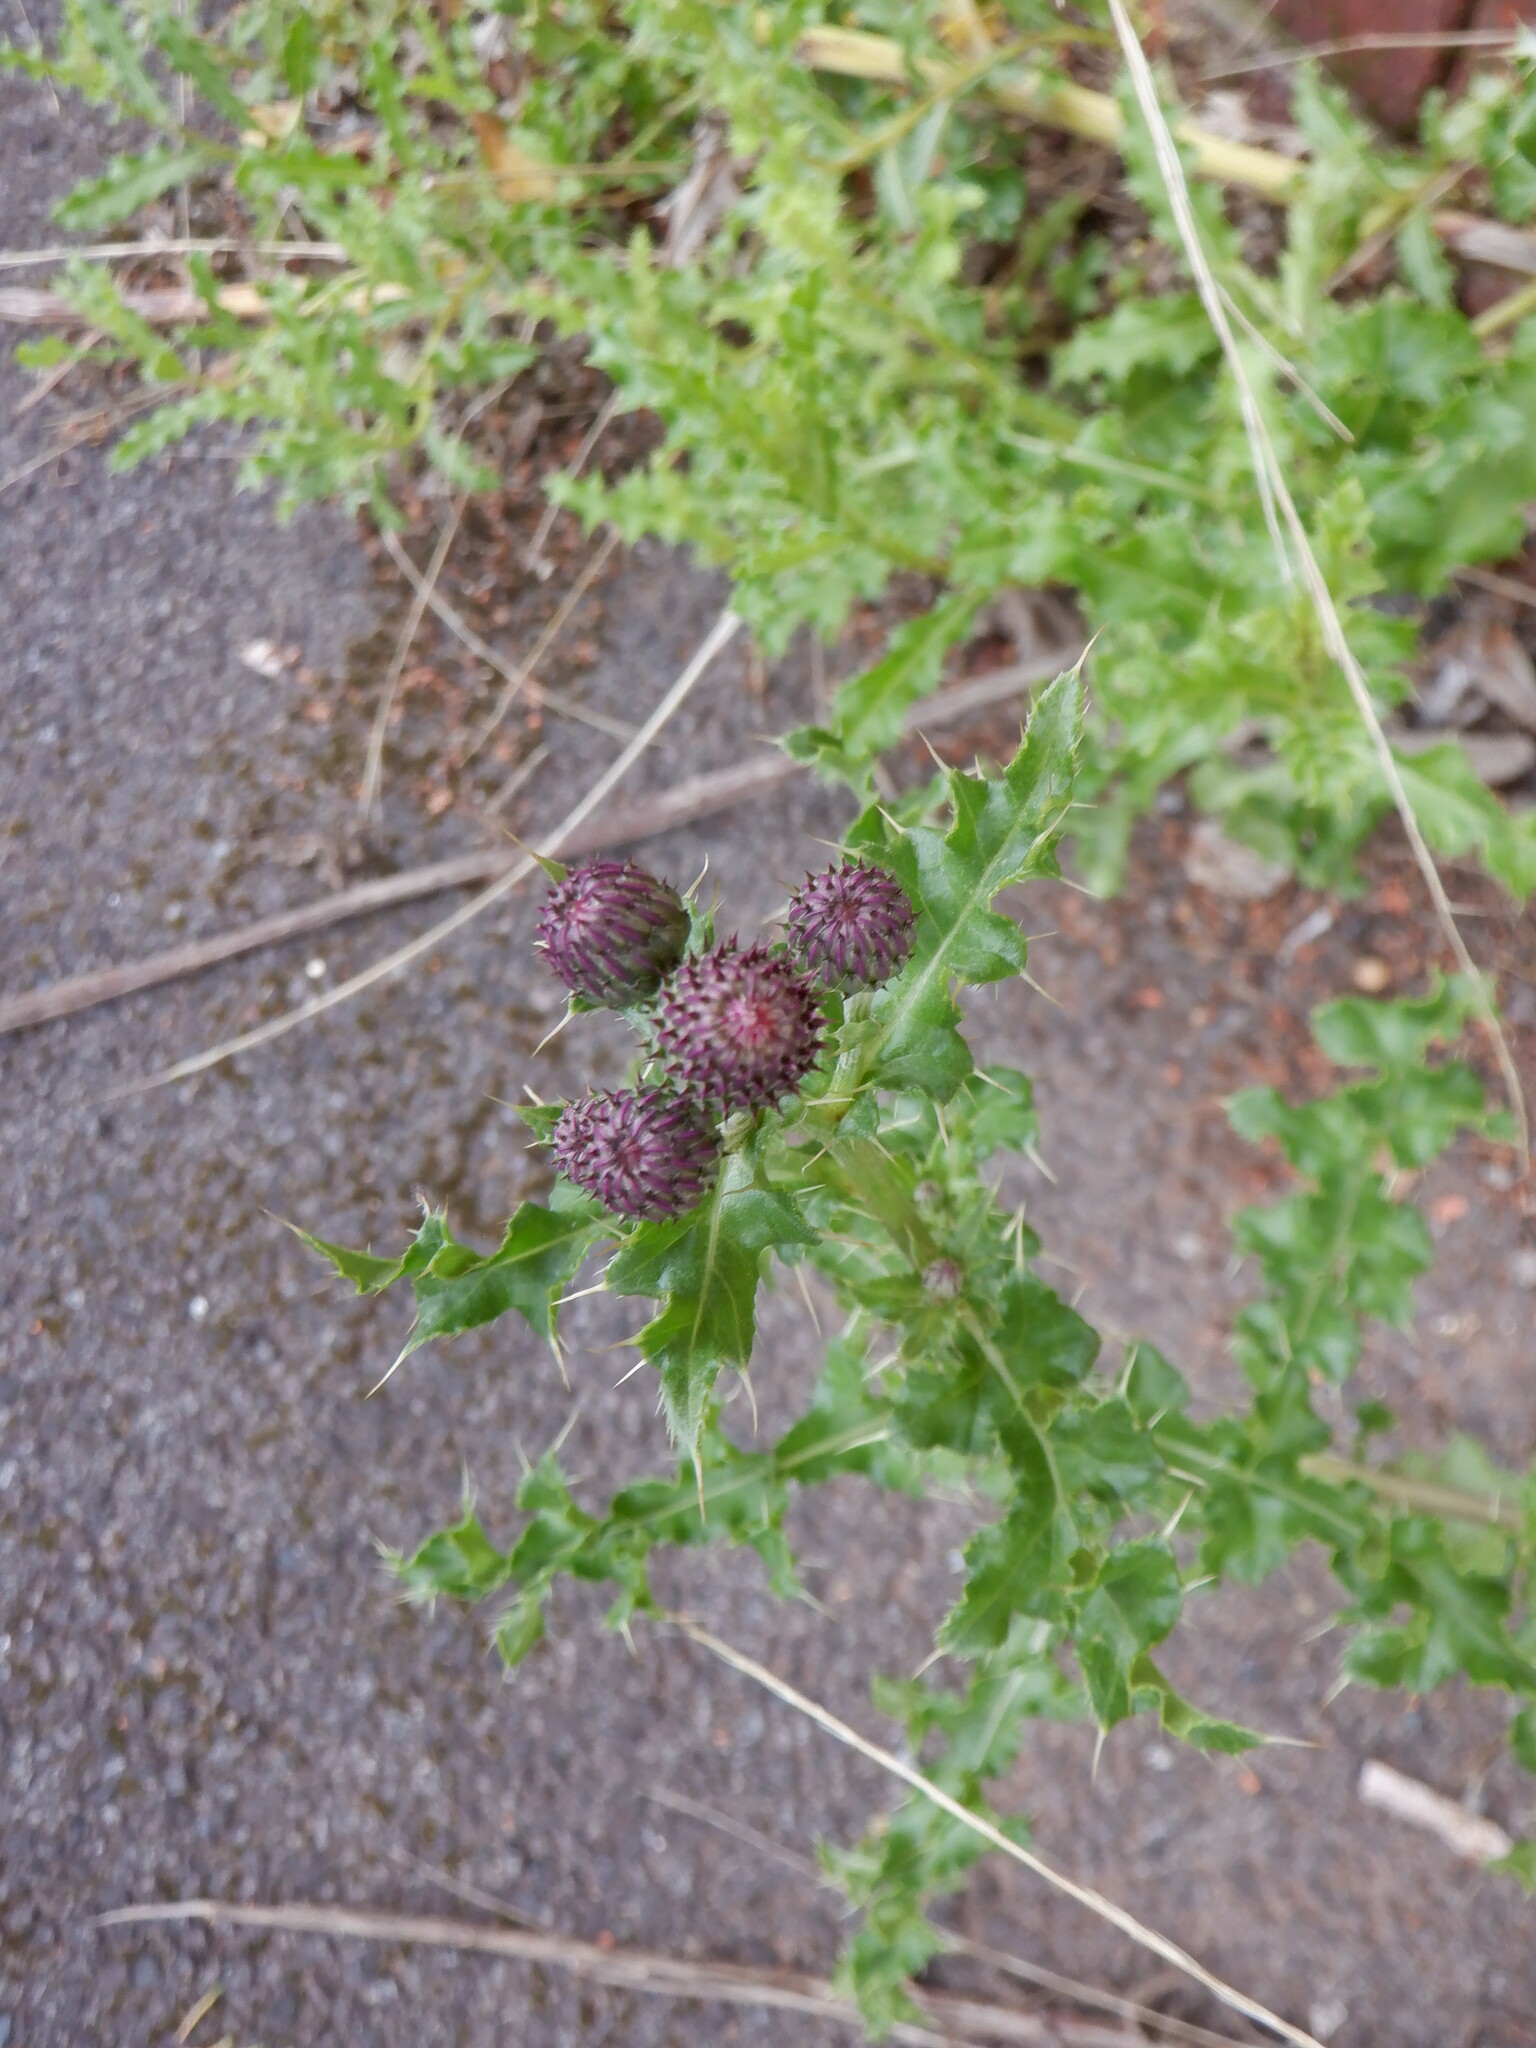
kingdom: Plantae
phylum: Tracheophyta
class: Magnoliopsida
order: Asterales
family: Asteraceae
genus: Cirsium
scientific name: Cirsium arvense
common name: Creeping thistle
